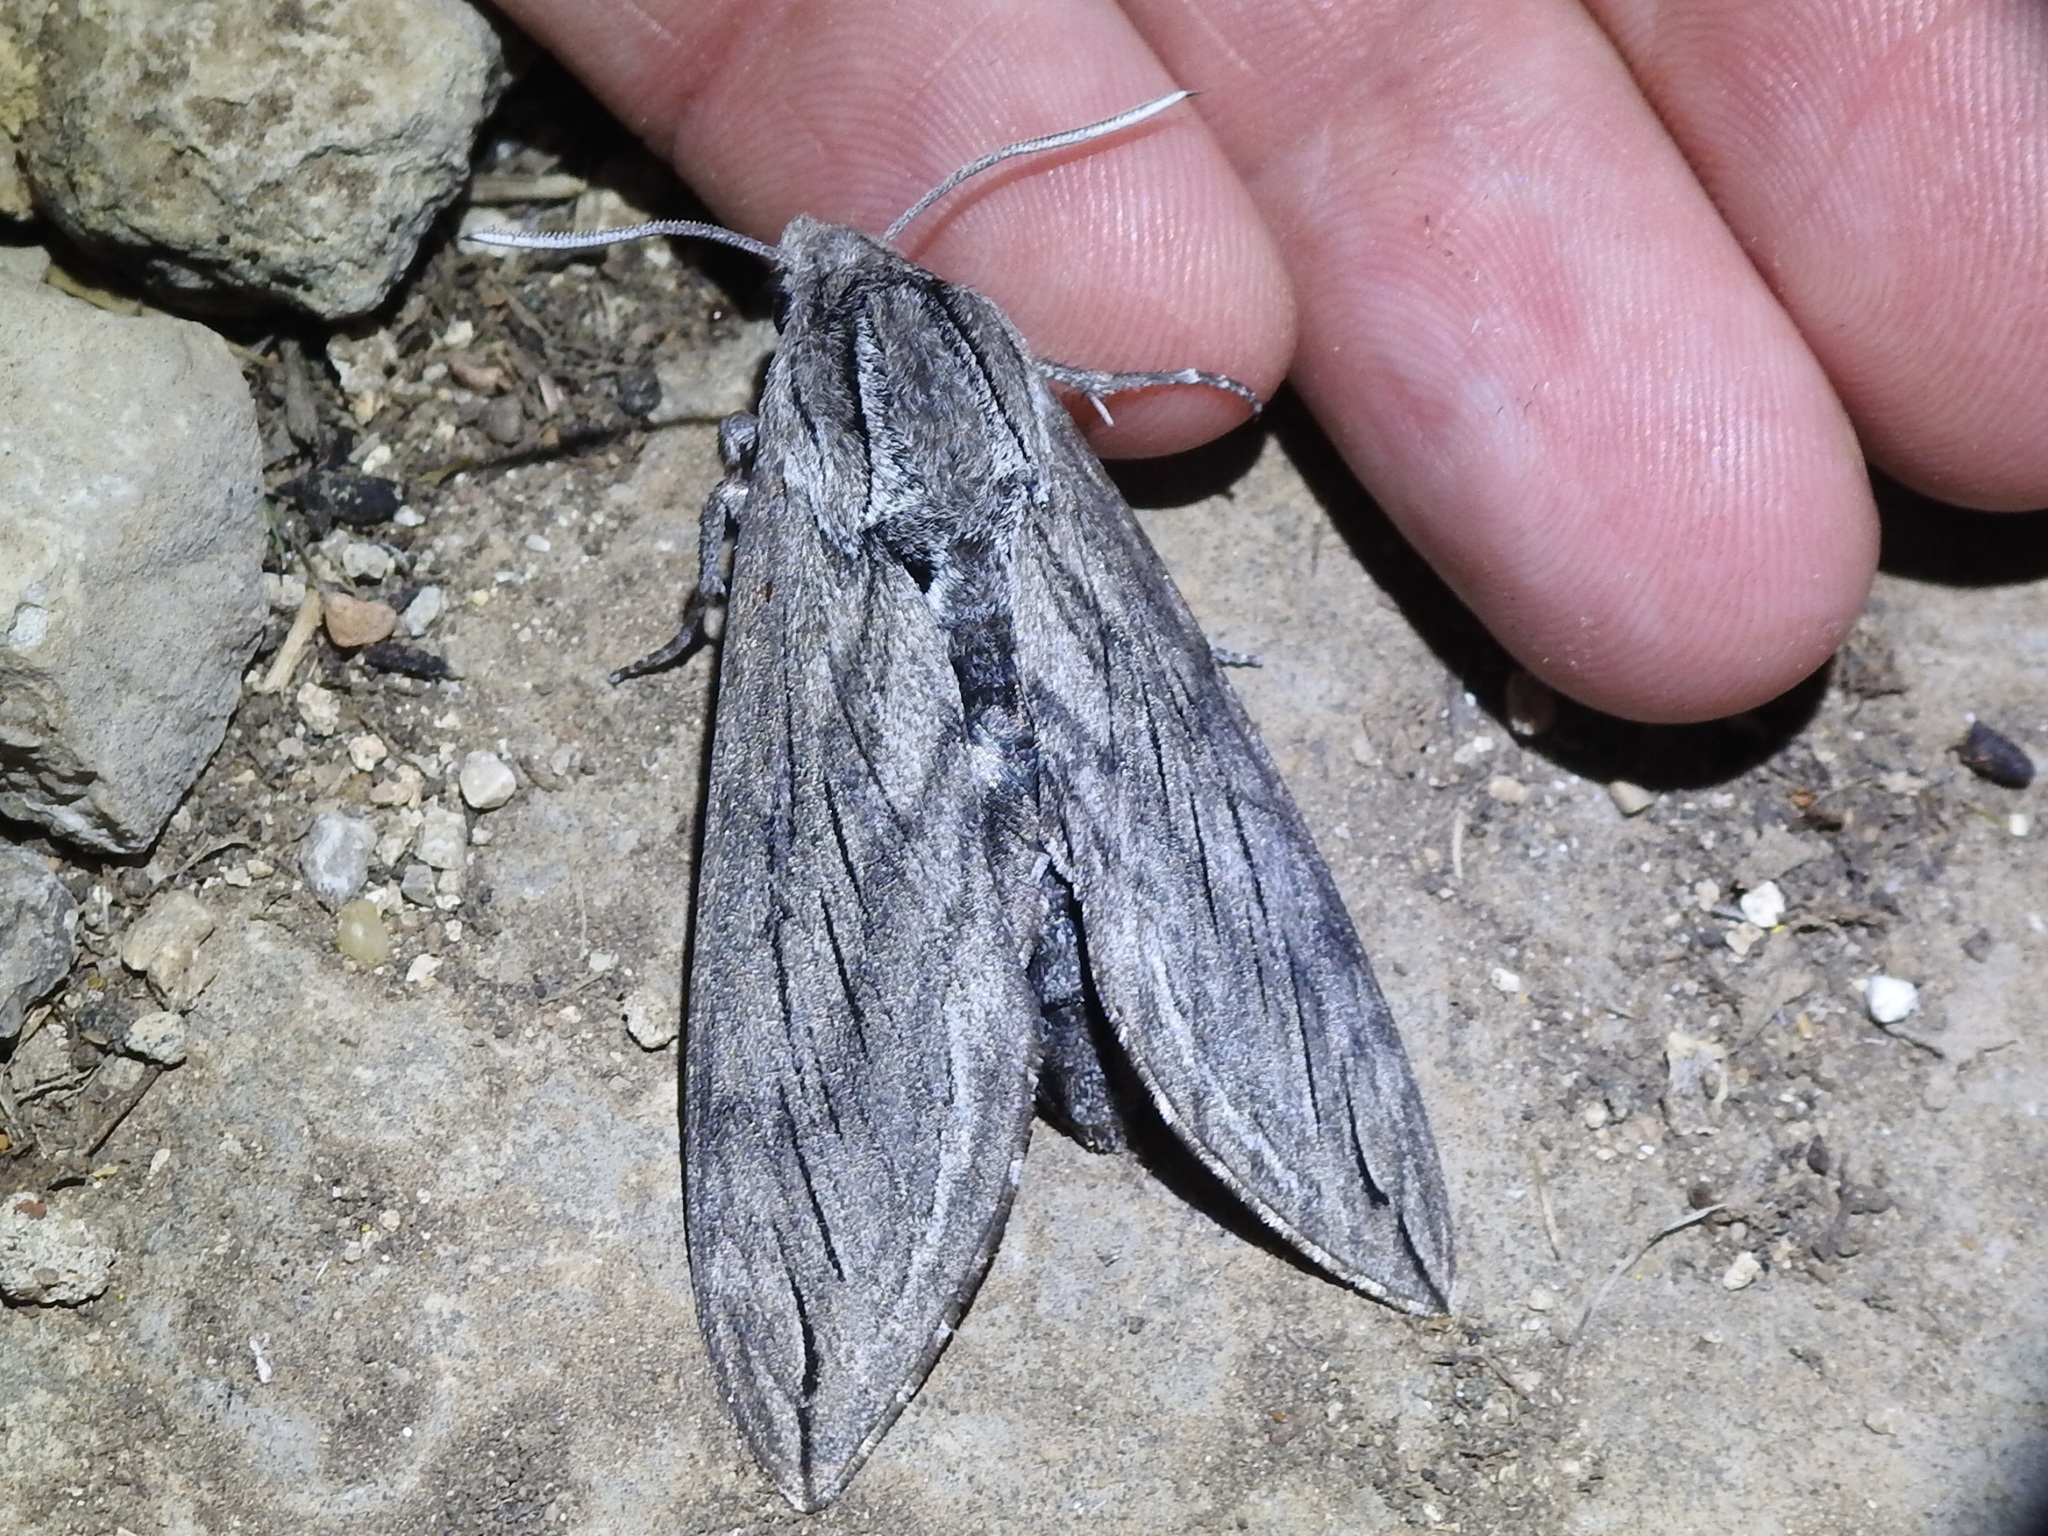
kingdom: Animalia
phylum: Arthropoda
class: Insecta
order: Lepidoptera
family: Sphingidae
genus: Sphinx
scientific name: Sphinx libocedrus
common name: Incense cedar sphinx
